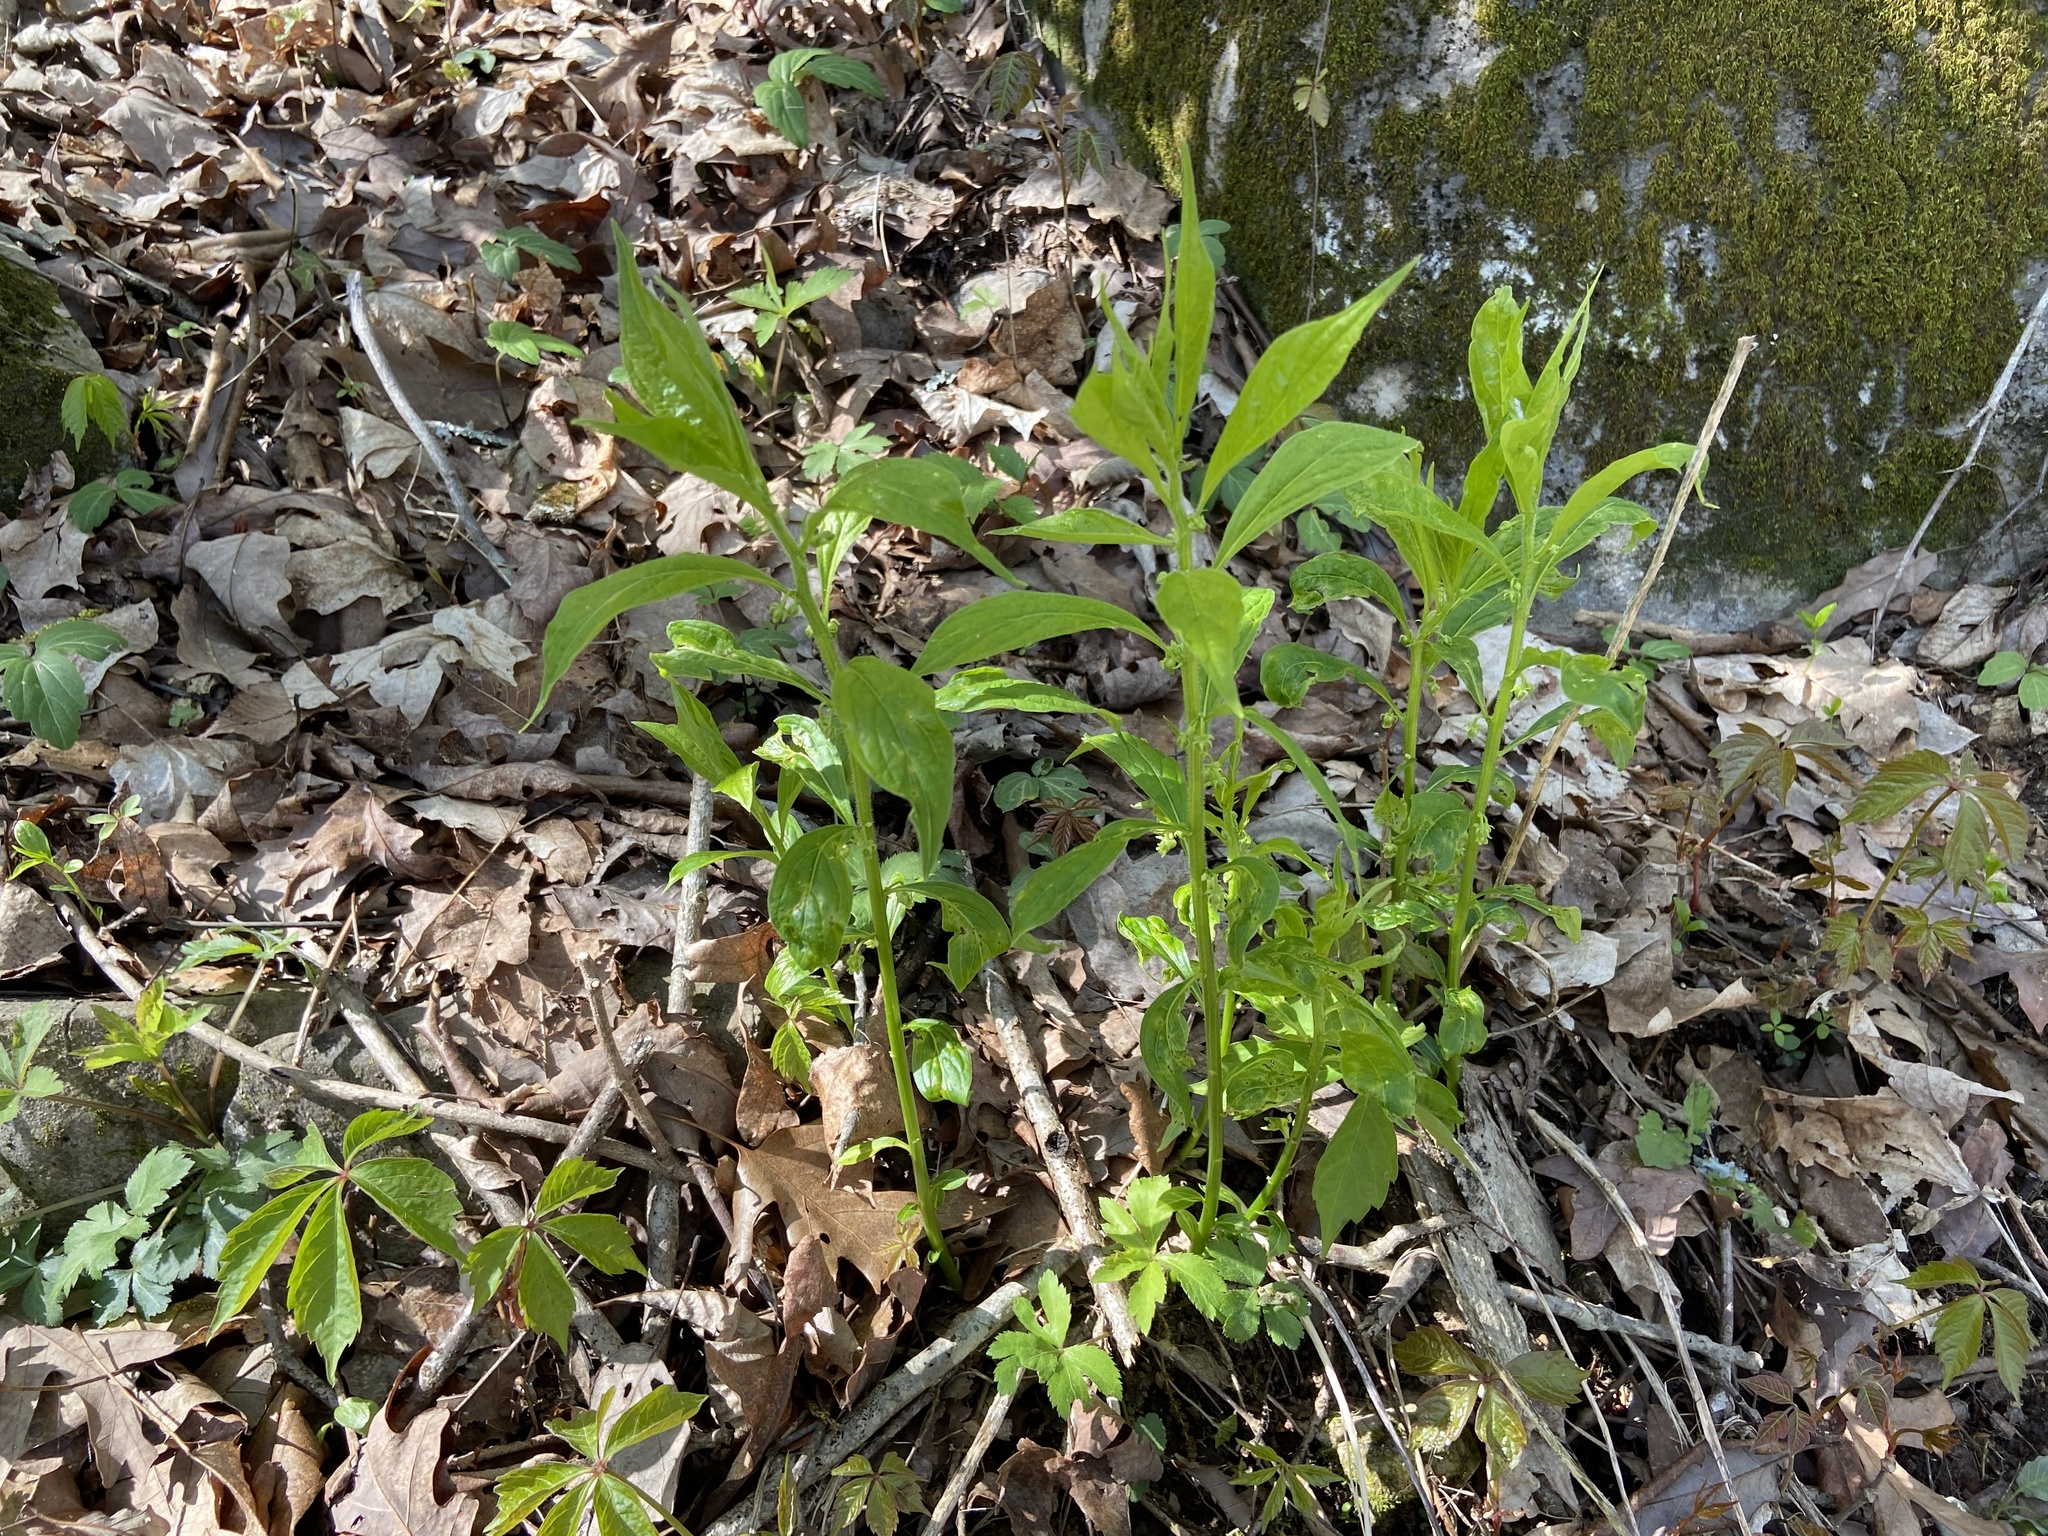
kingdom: Plantae
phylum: Tracheophyta
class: Magnoliopsida
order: Malpighiales
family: Violaceae
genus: Cubelium
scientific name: Cubelium concolor
